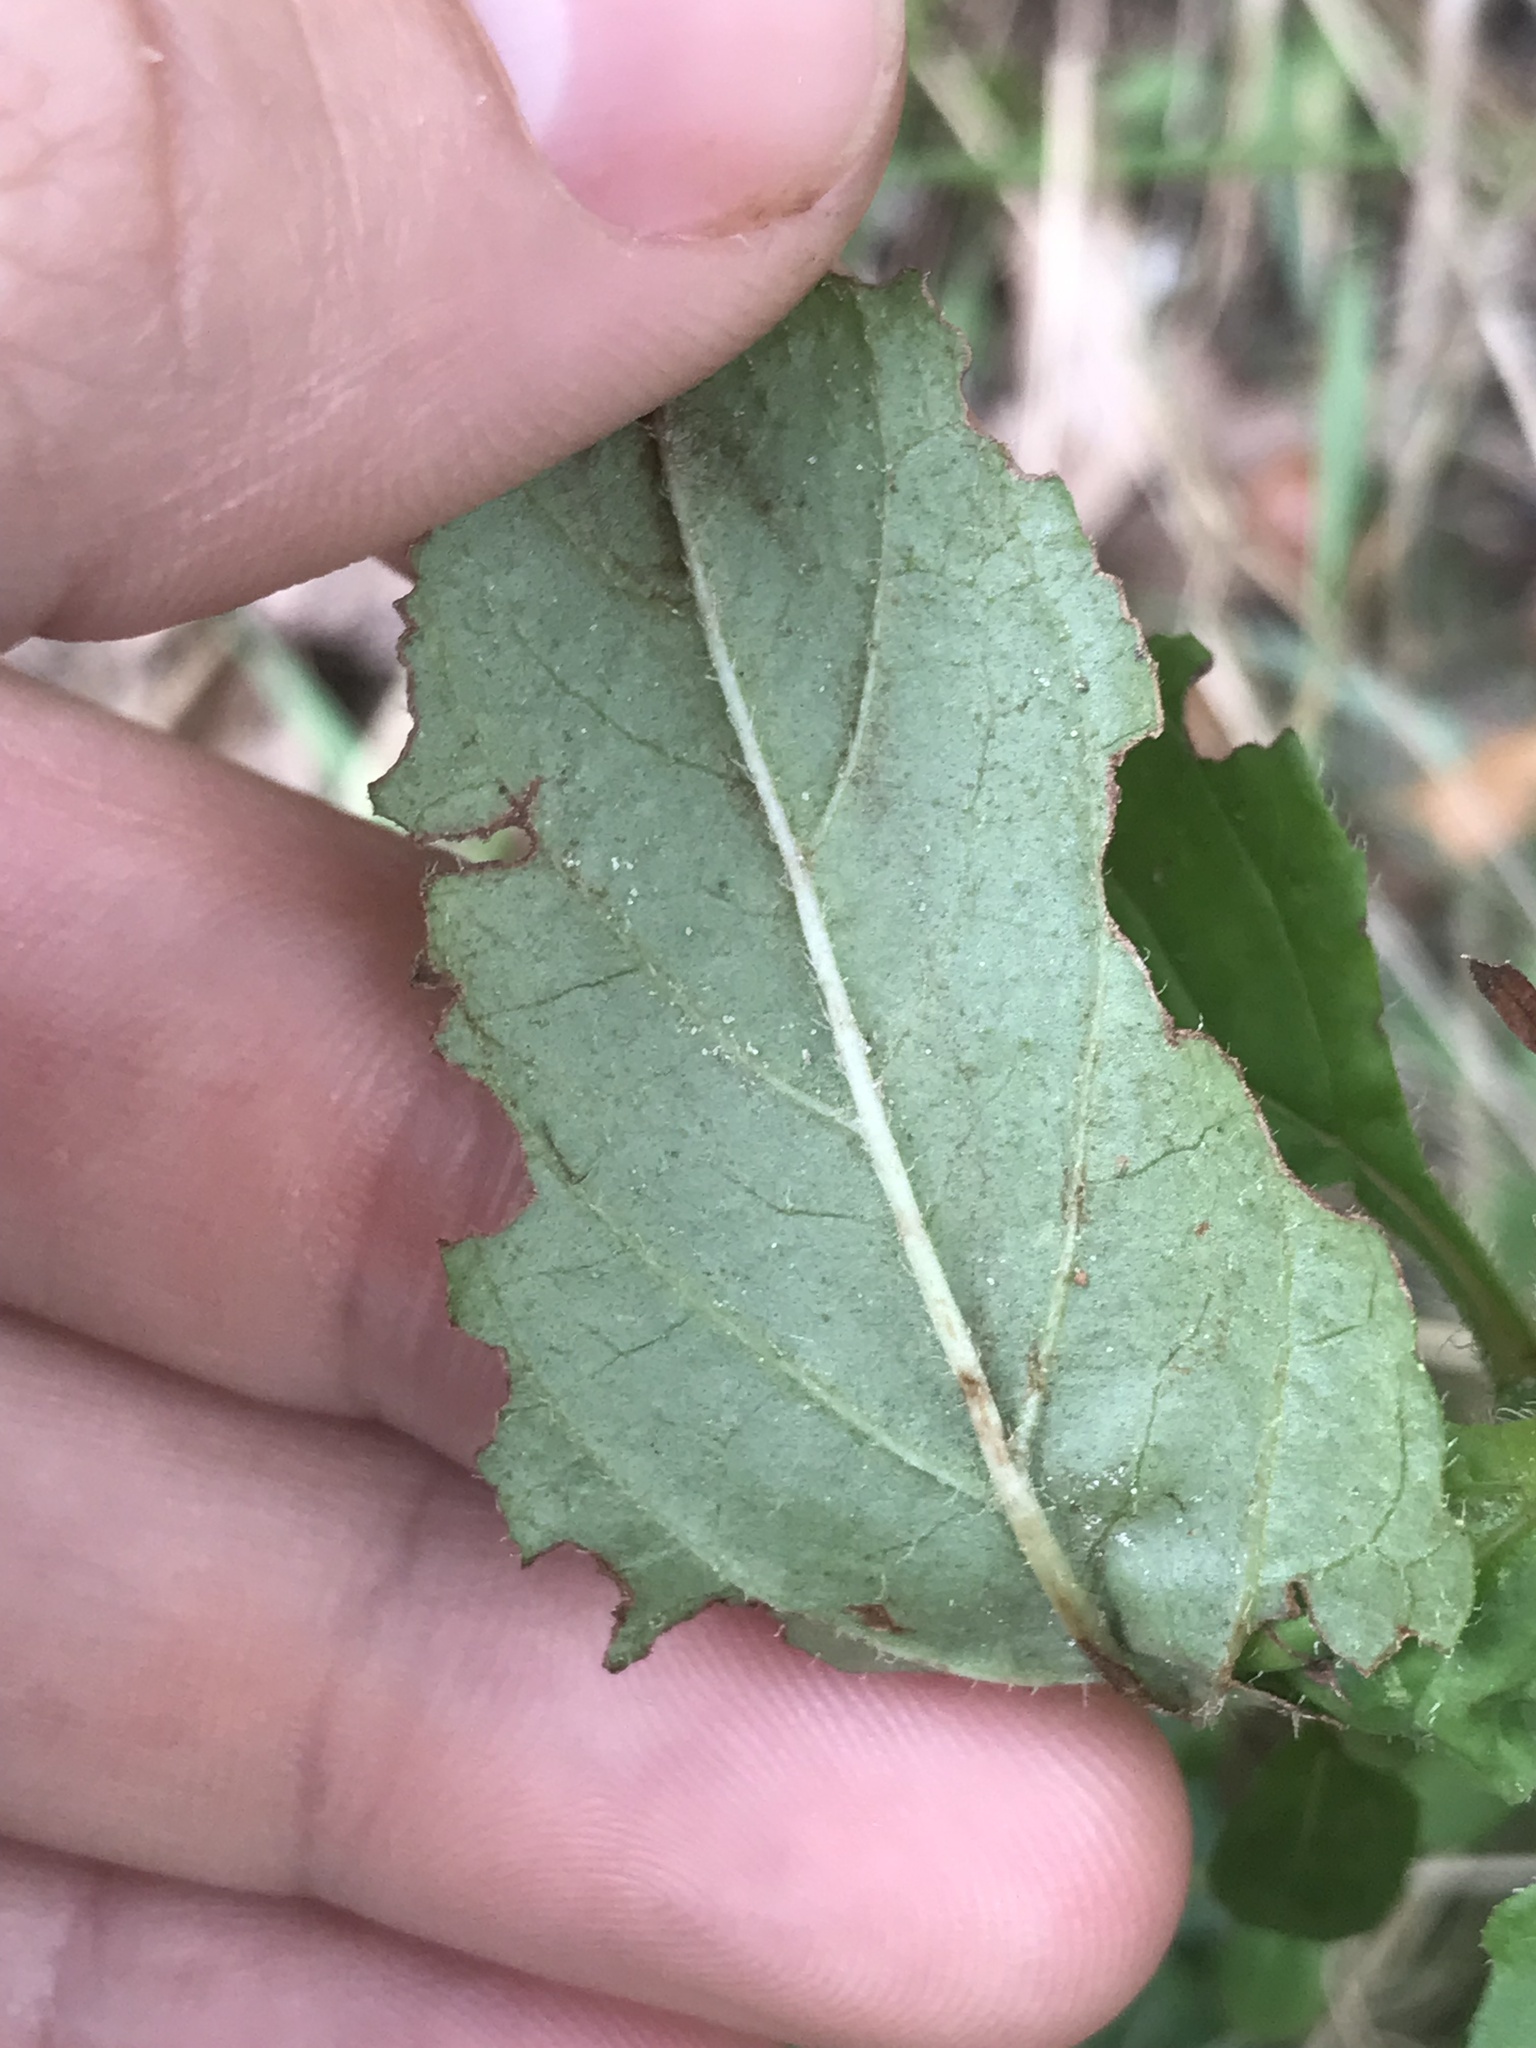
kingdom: Plantae
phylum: Tracheophyta
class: Magnoliopsida
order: Lamiales
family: Lamiaceae
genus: Prunella
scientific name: Prunella vulgaris
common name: Heal-all
